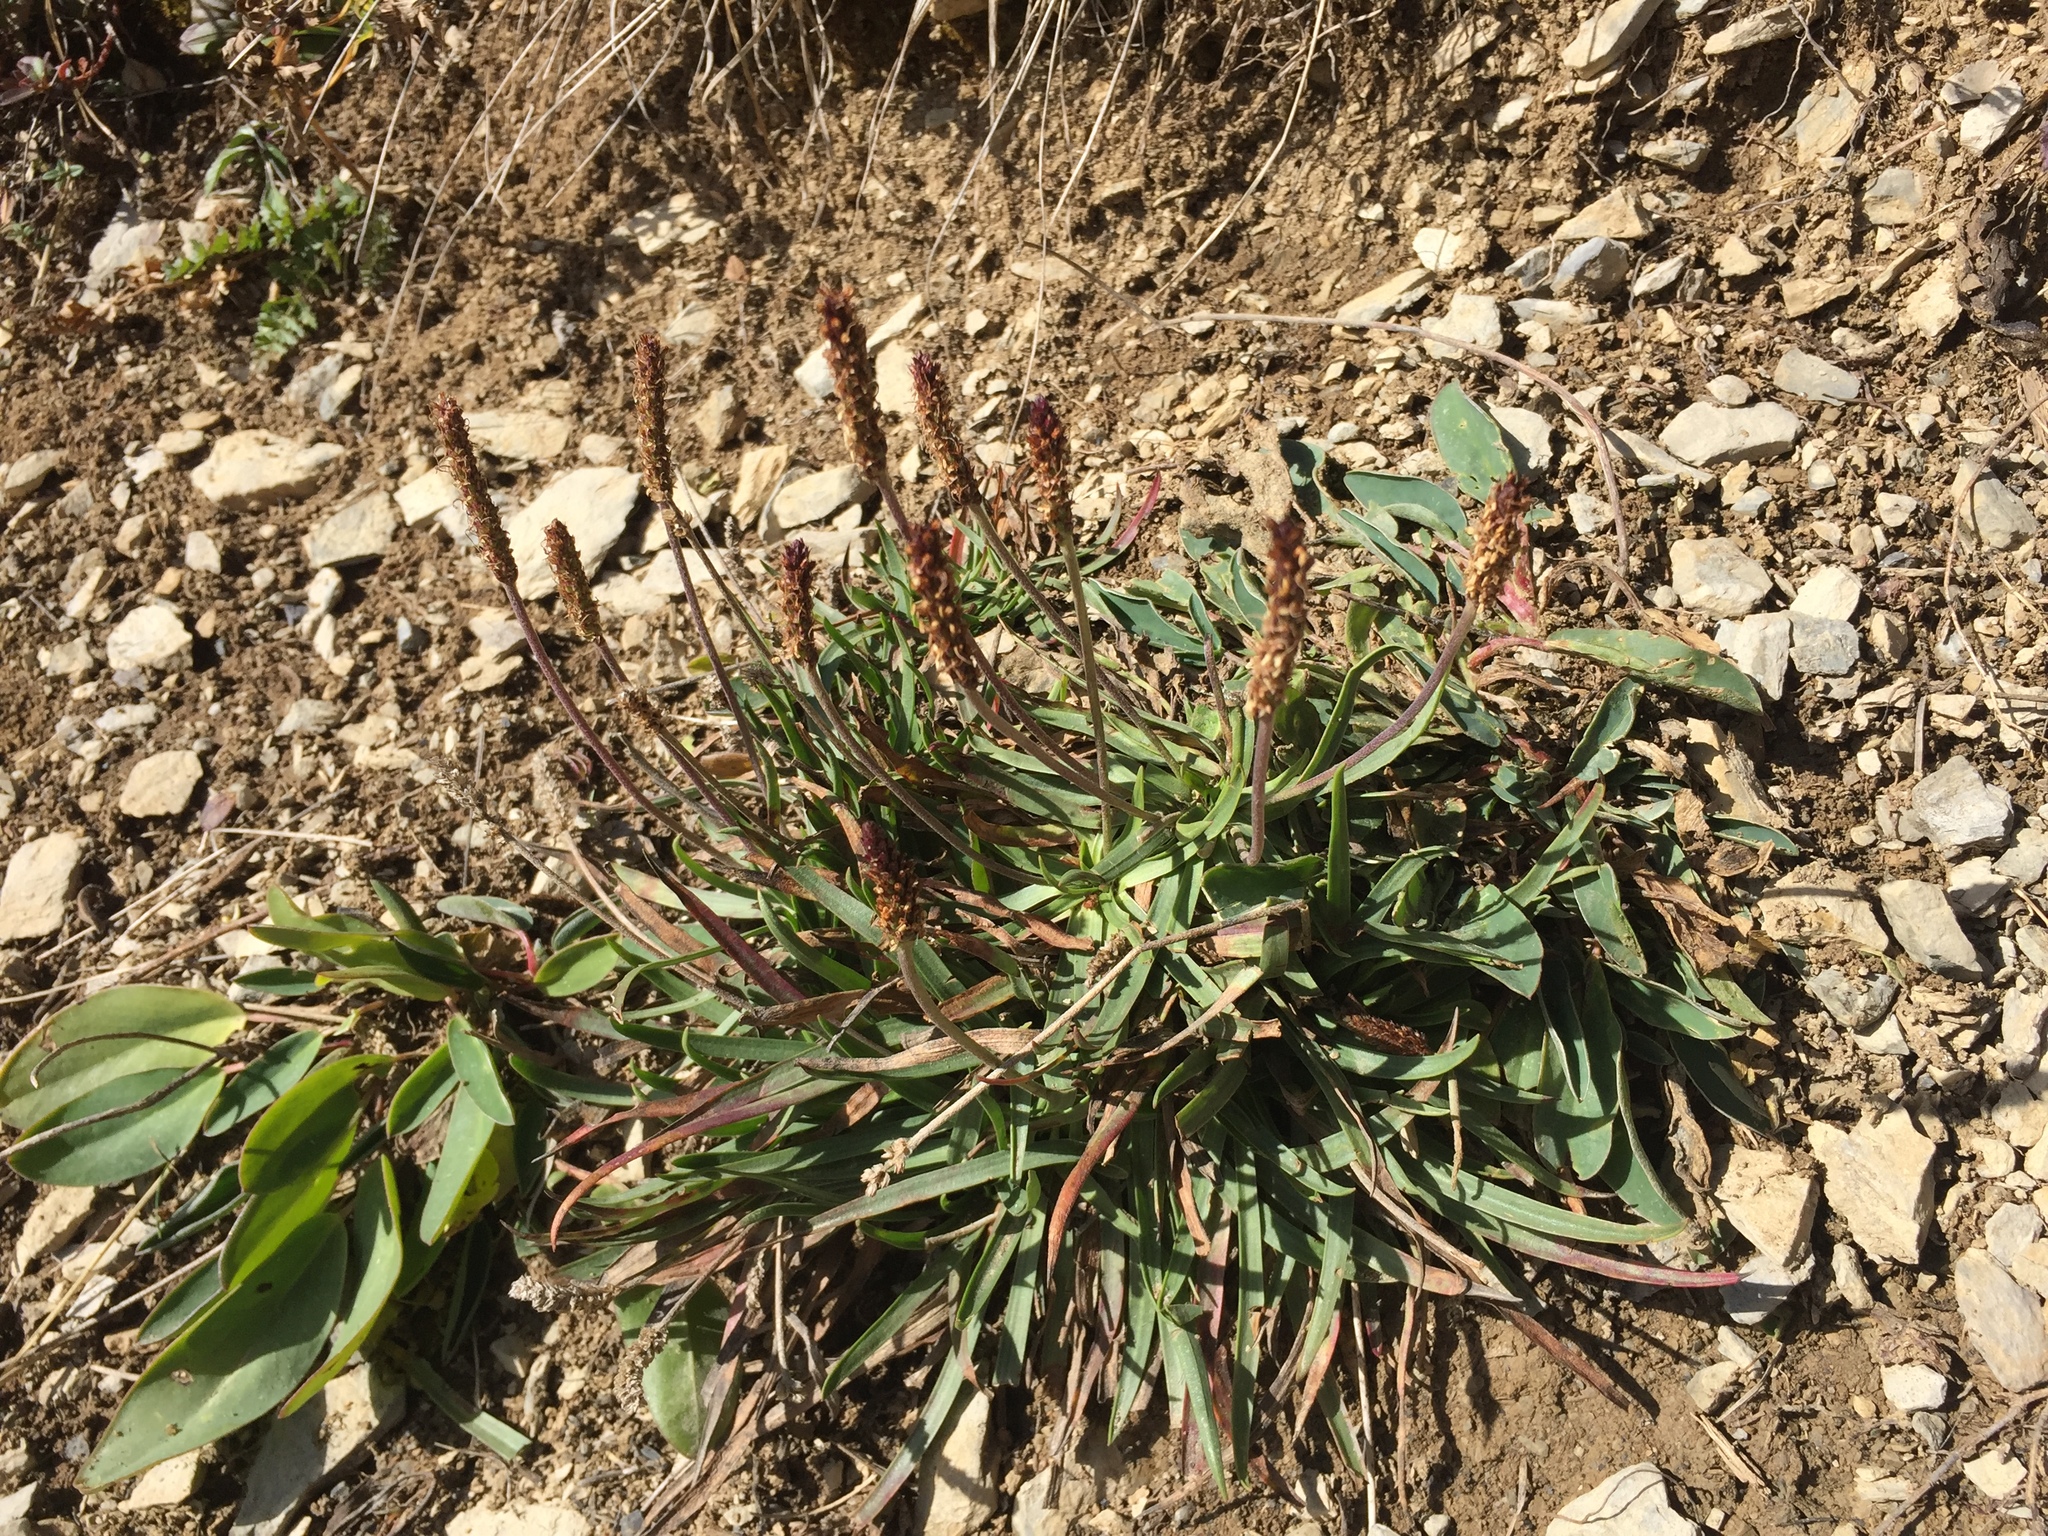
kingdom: Plantae
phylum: Tracheophyta
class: Magnoliopsida
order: Lamiales
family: Plantaginaceae
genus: Plantago
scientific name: Plantago alpina
